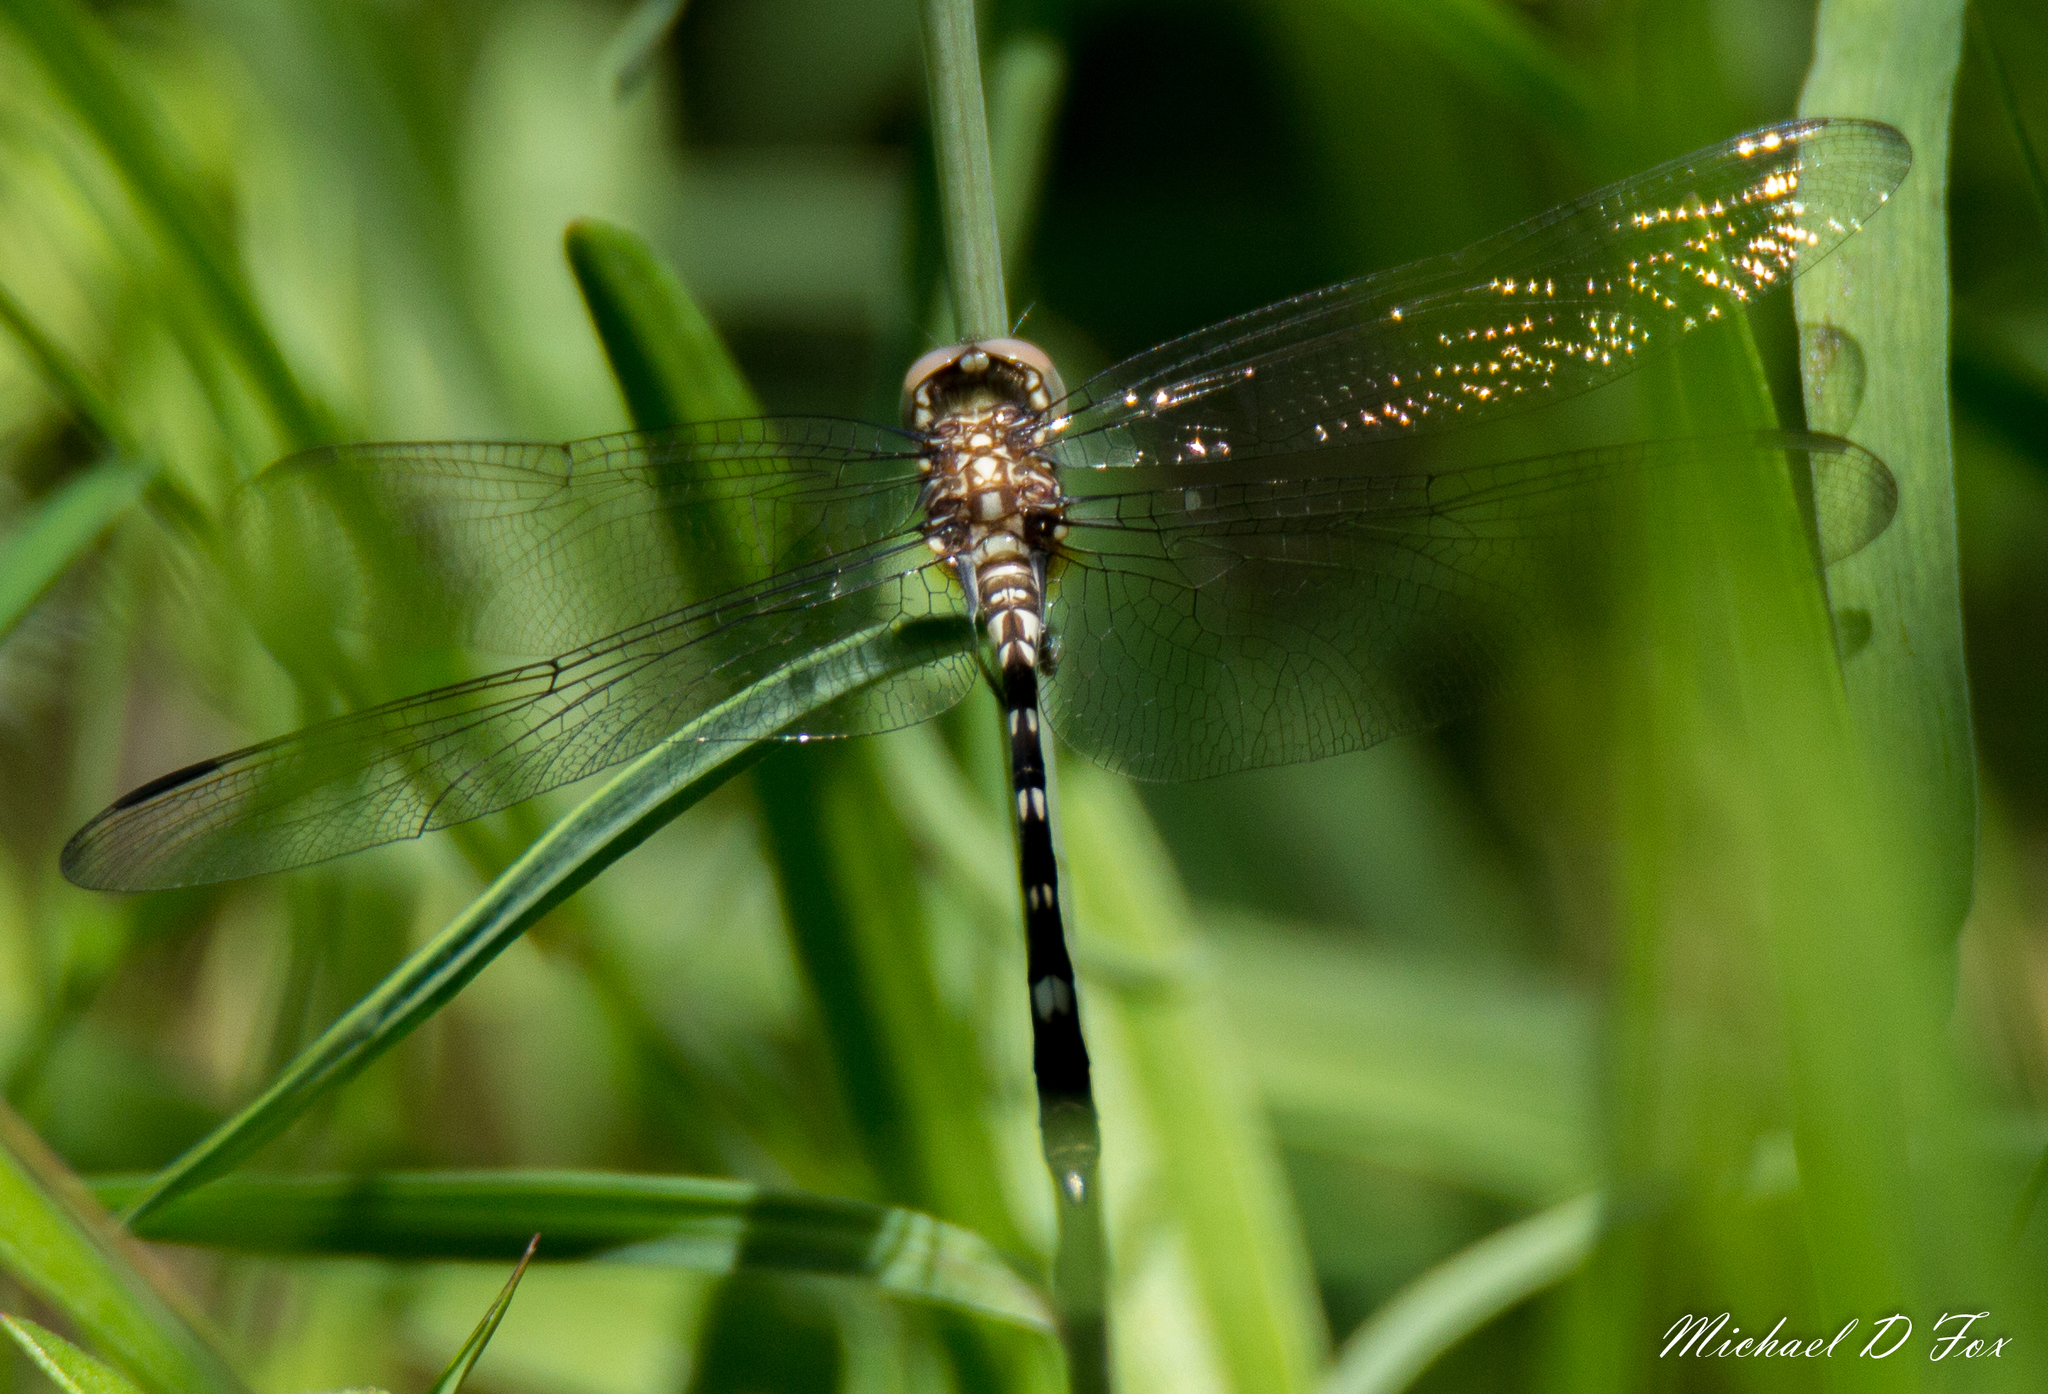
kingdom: Animalia
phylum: Arthropoda
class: Insecta
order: Odonata
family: Libellulidae
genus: Dythemis
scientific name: Dythemis velox
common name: Swift setwing
